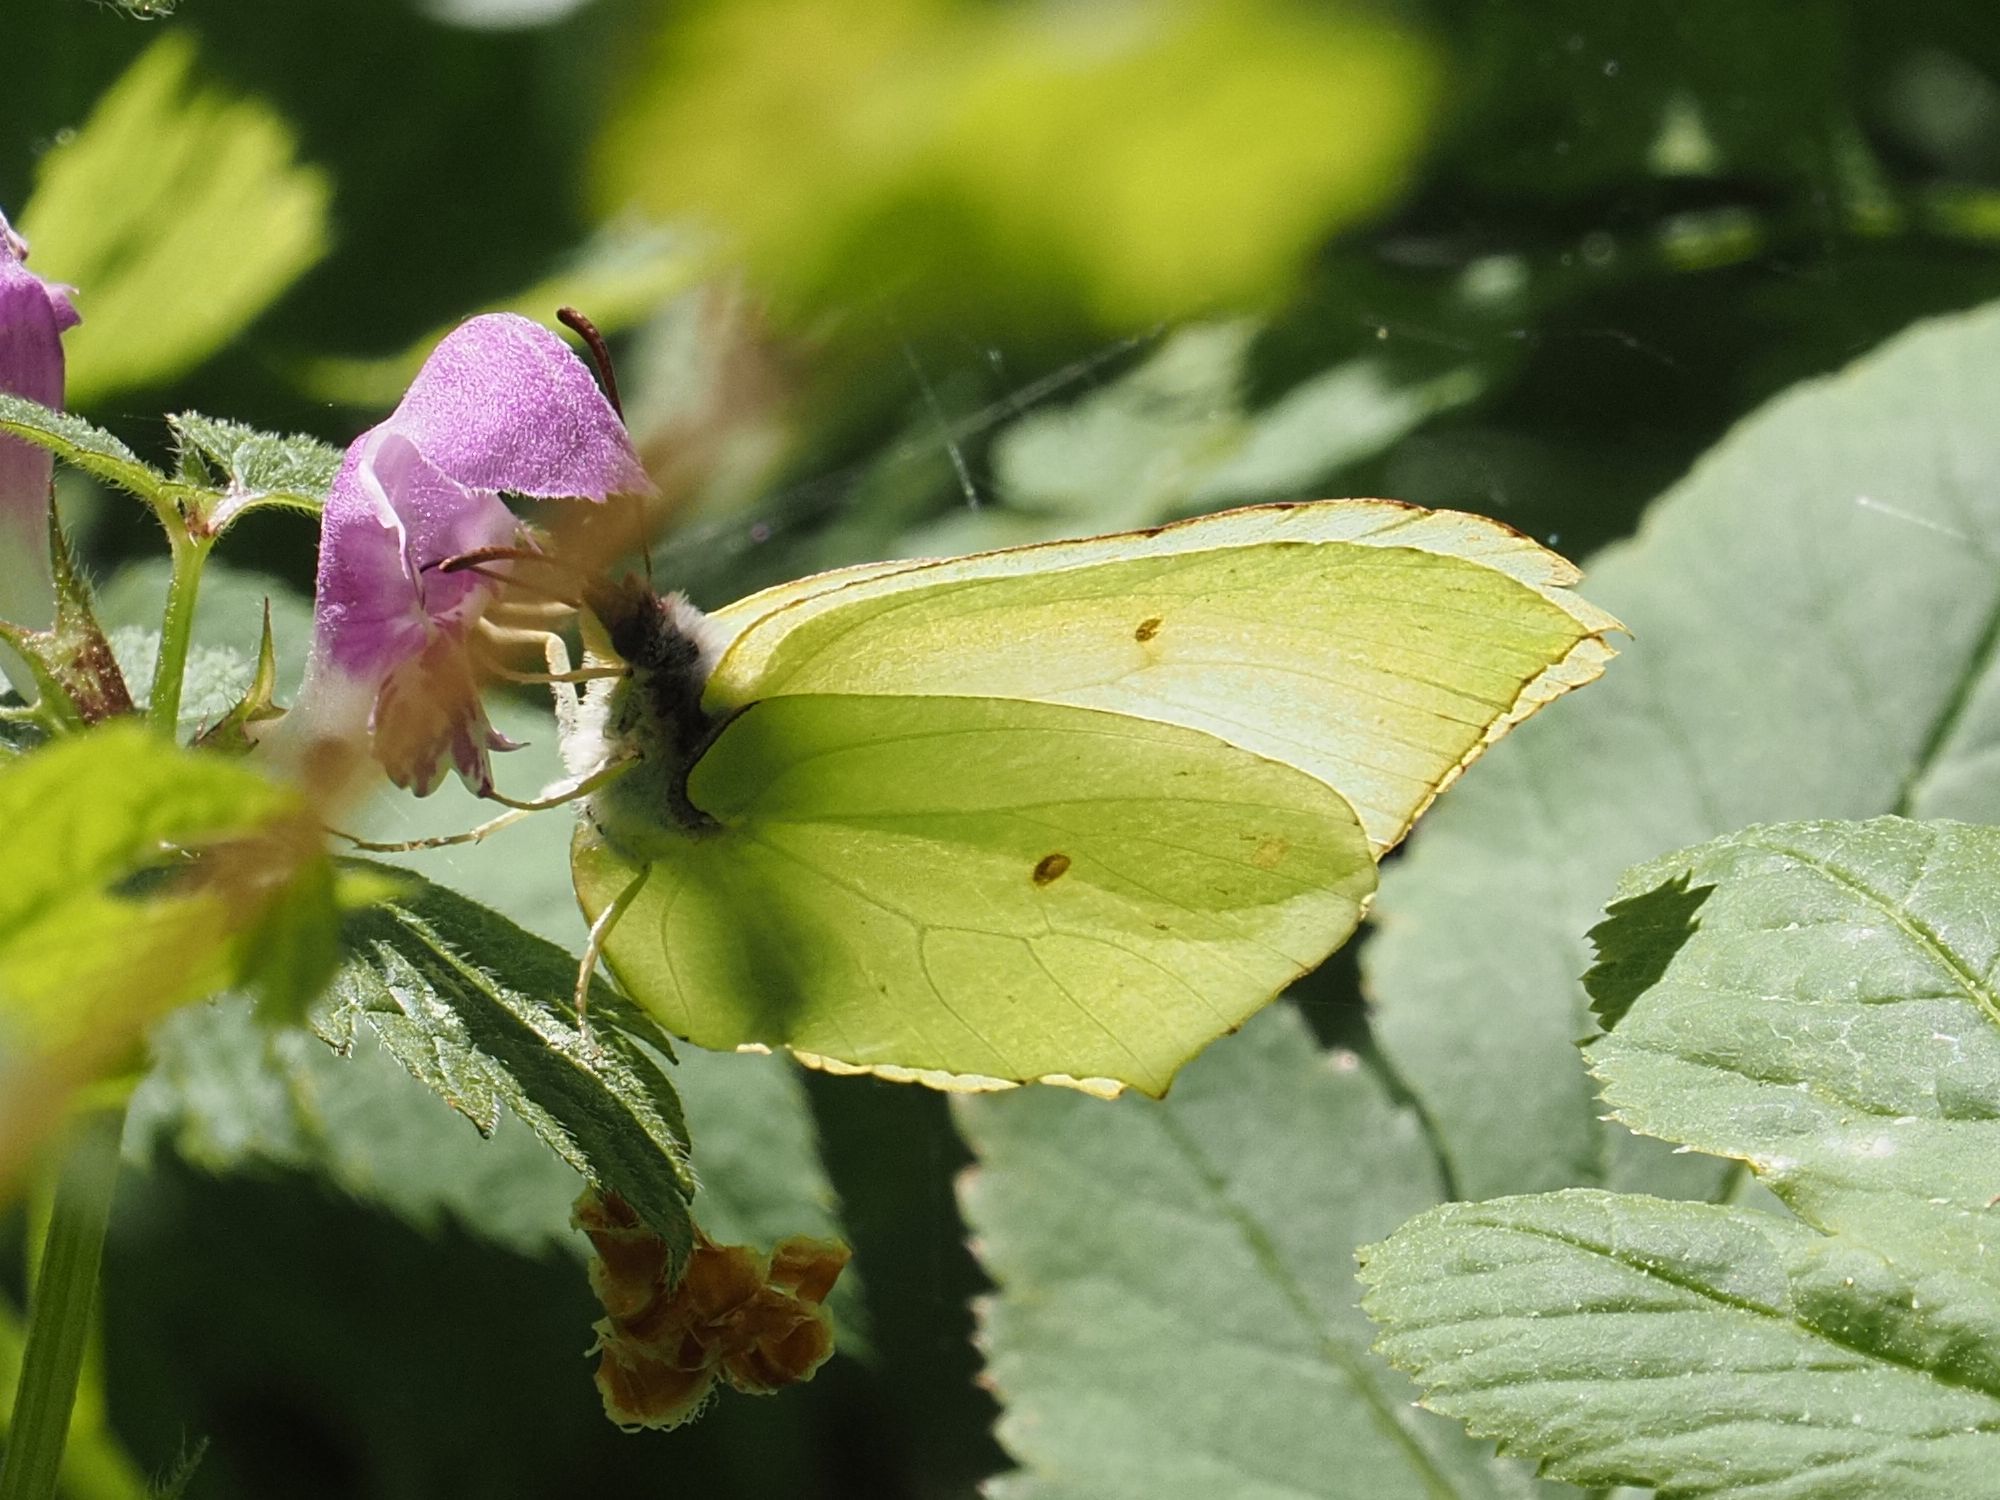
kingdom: Animalia
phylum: Arthropoda
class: Insecta
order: Lepidoptera
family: Pieridae
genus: Gonepteryx
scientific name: Gonepteryx rhamni
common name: Brimstone
